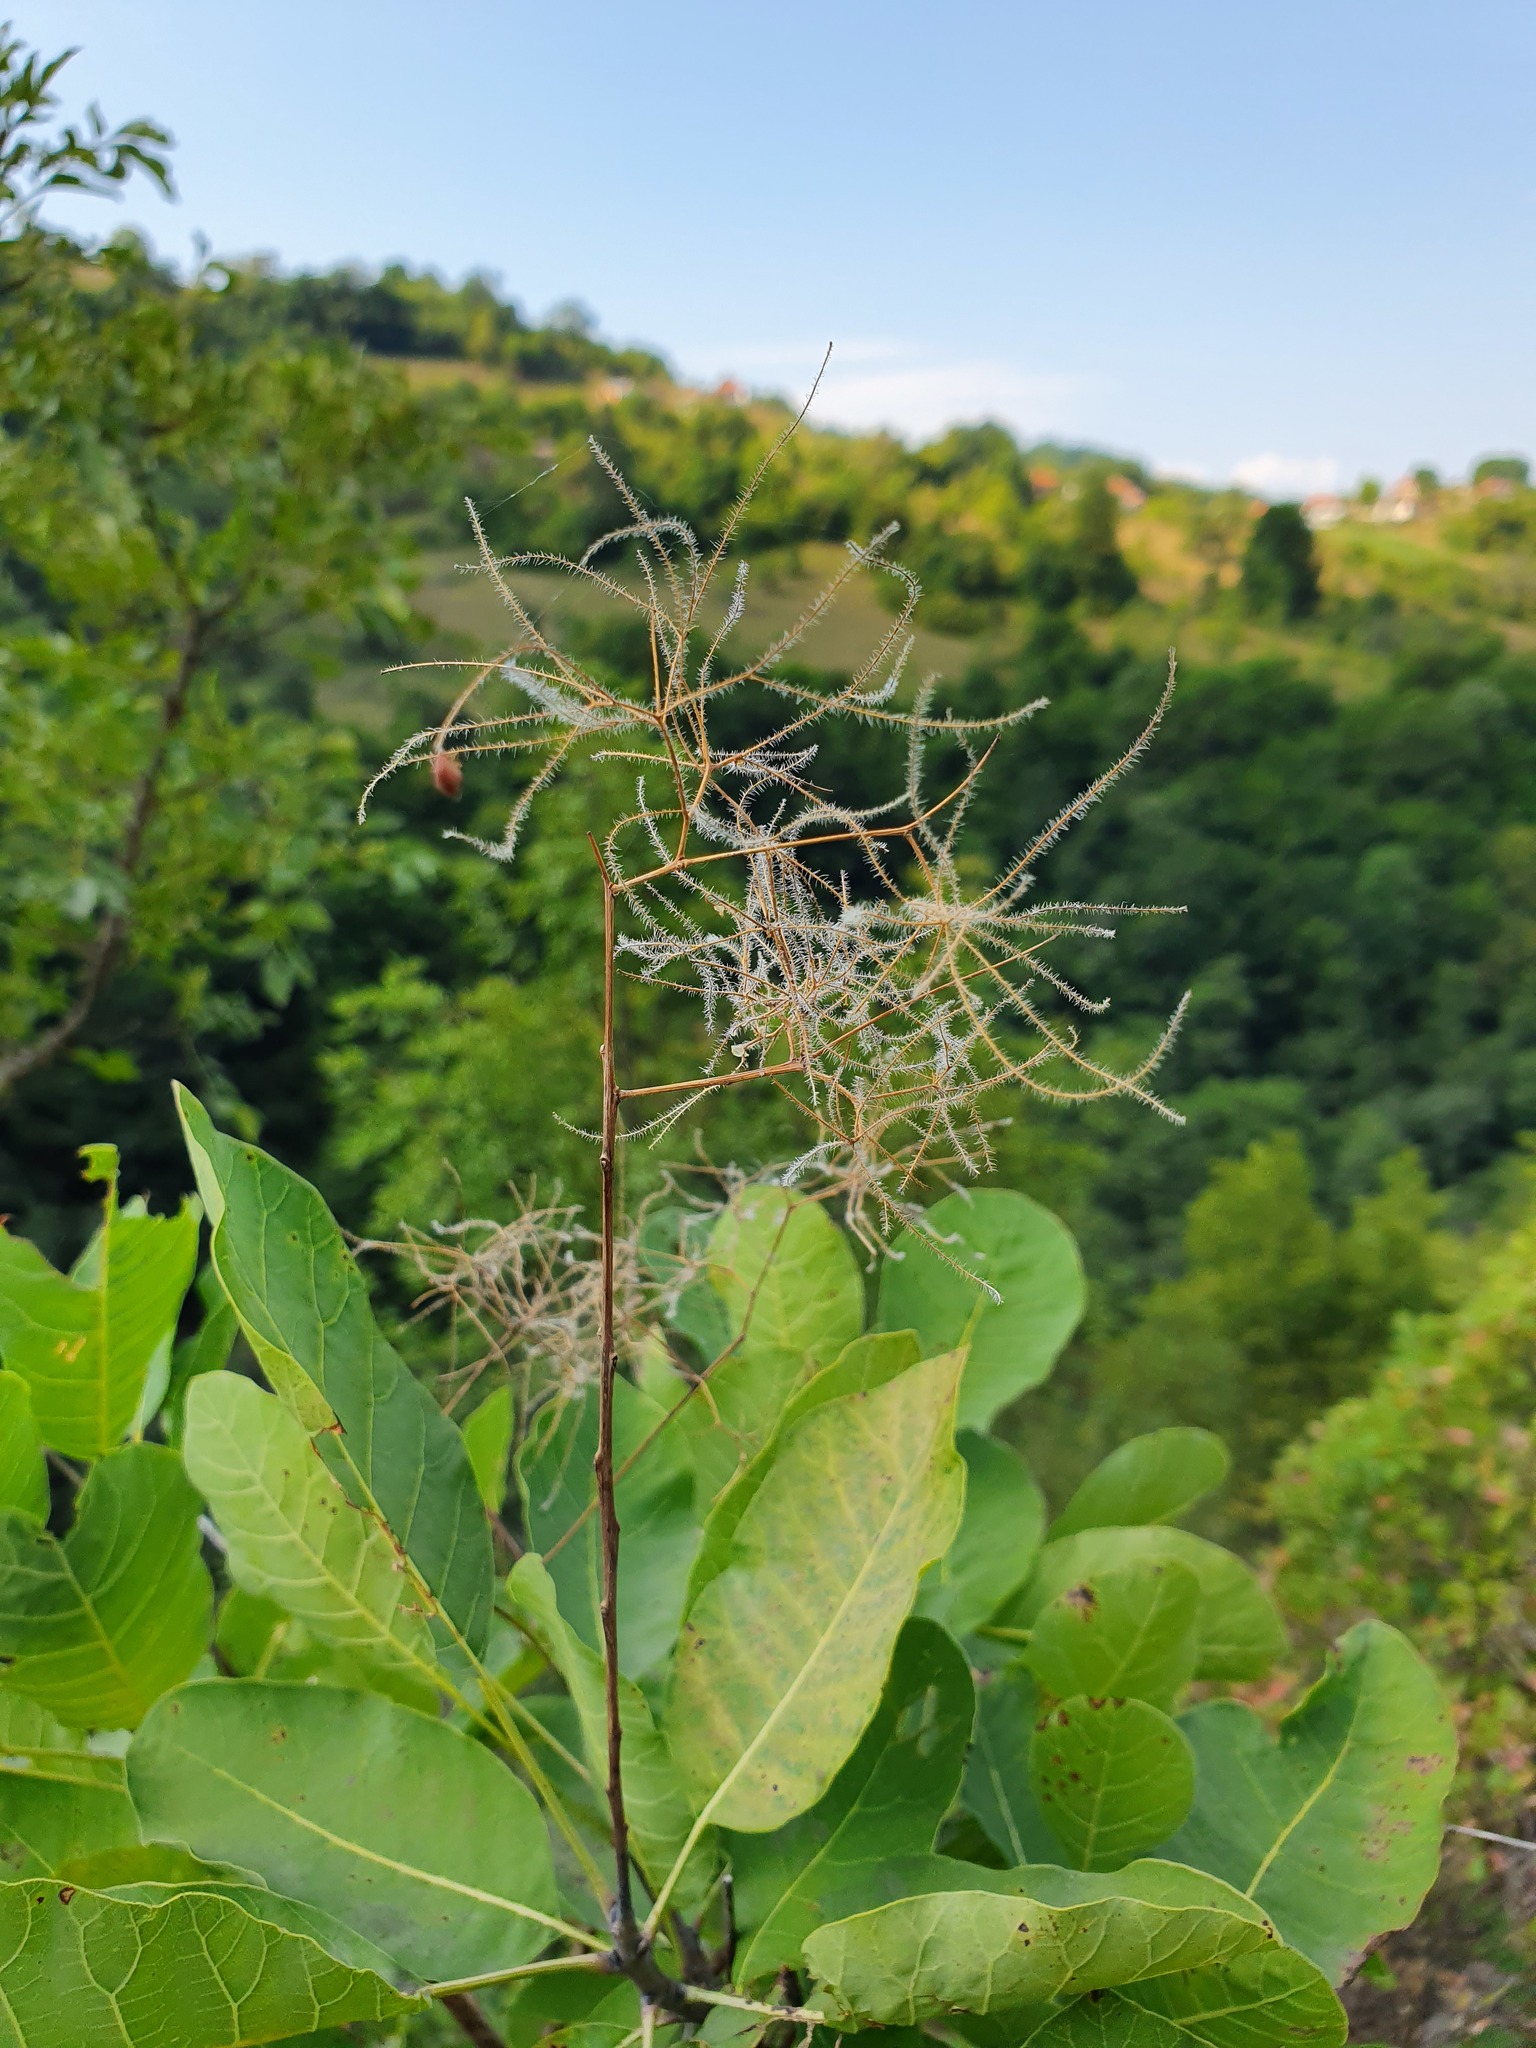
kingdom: Plantae
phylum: Tracheophyta
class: Magnoliopsida
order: Sapindales
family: Anacardiaceae
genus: Cotinus
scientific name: Cotinus coggygria
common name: Smoke-tree
